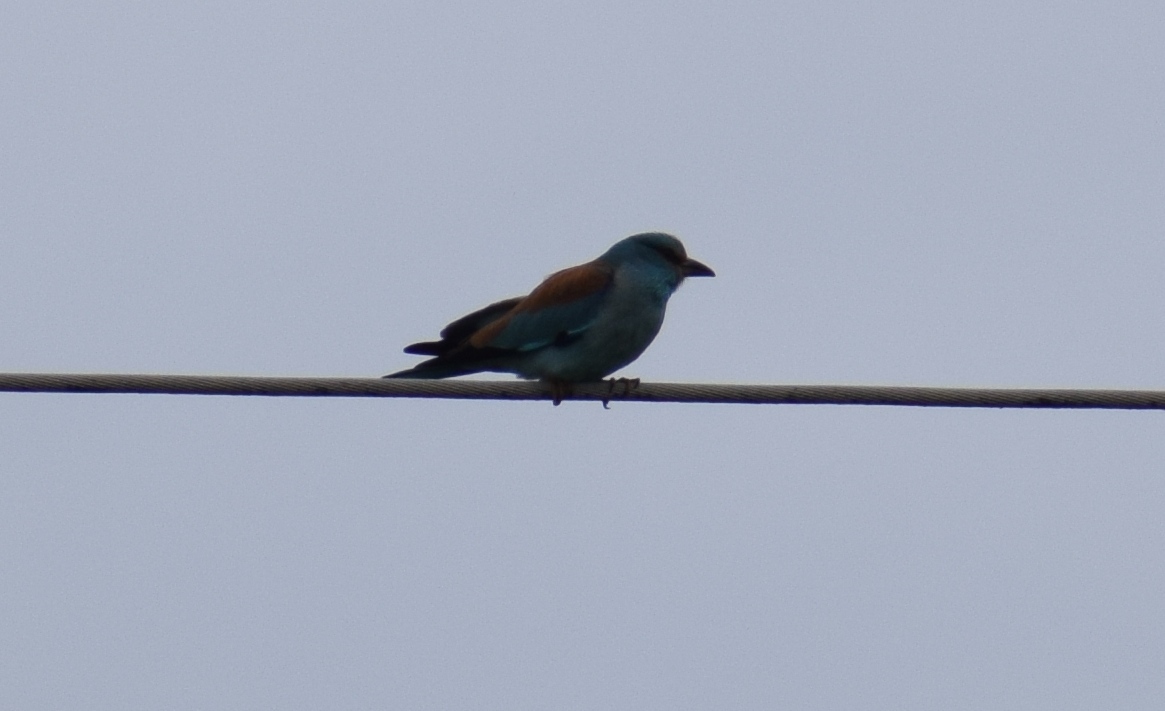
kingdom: Animalia
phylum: Chordata
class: Aves
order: Coraciiformes
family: Coraciidae
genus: Coracias
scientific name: Coracias garrulus
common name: European roller
